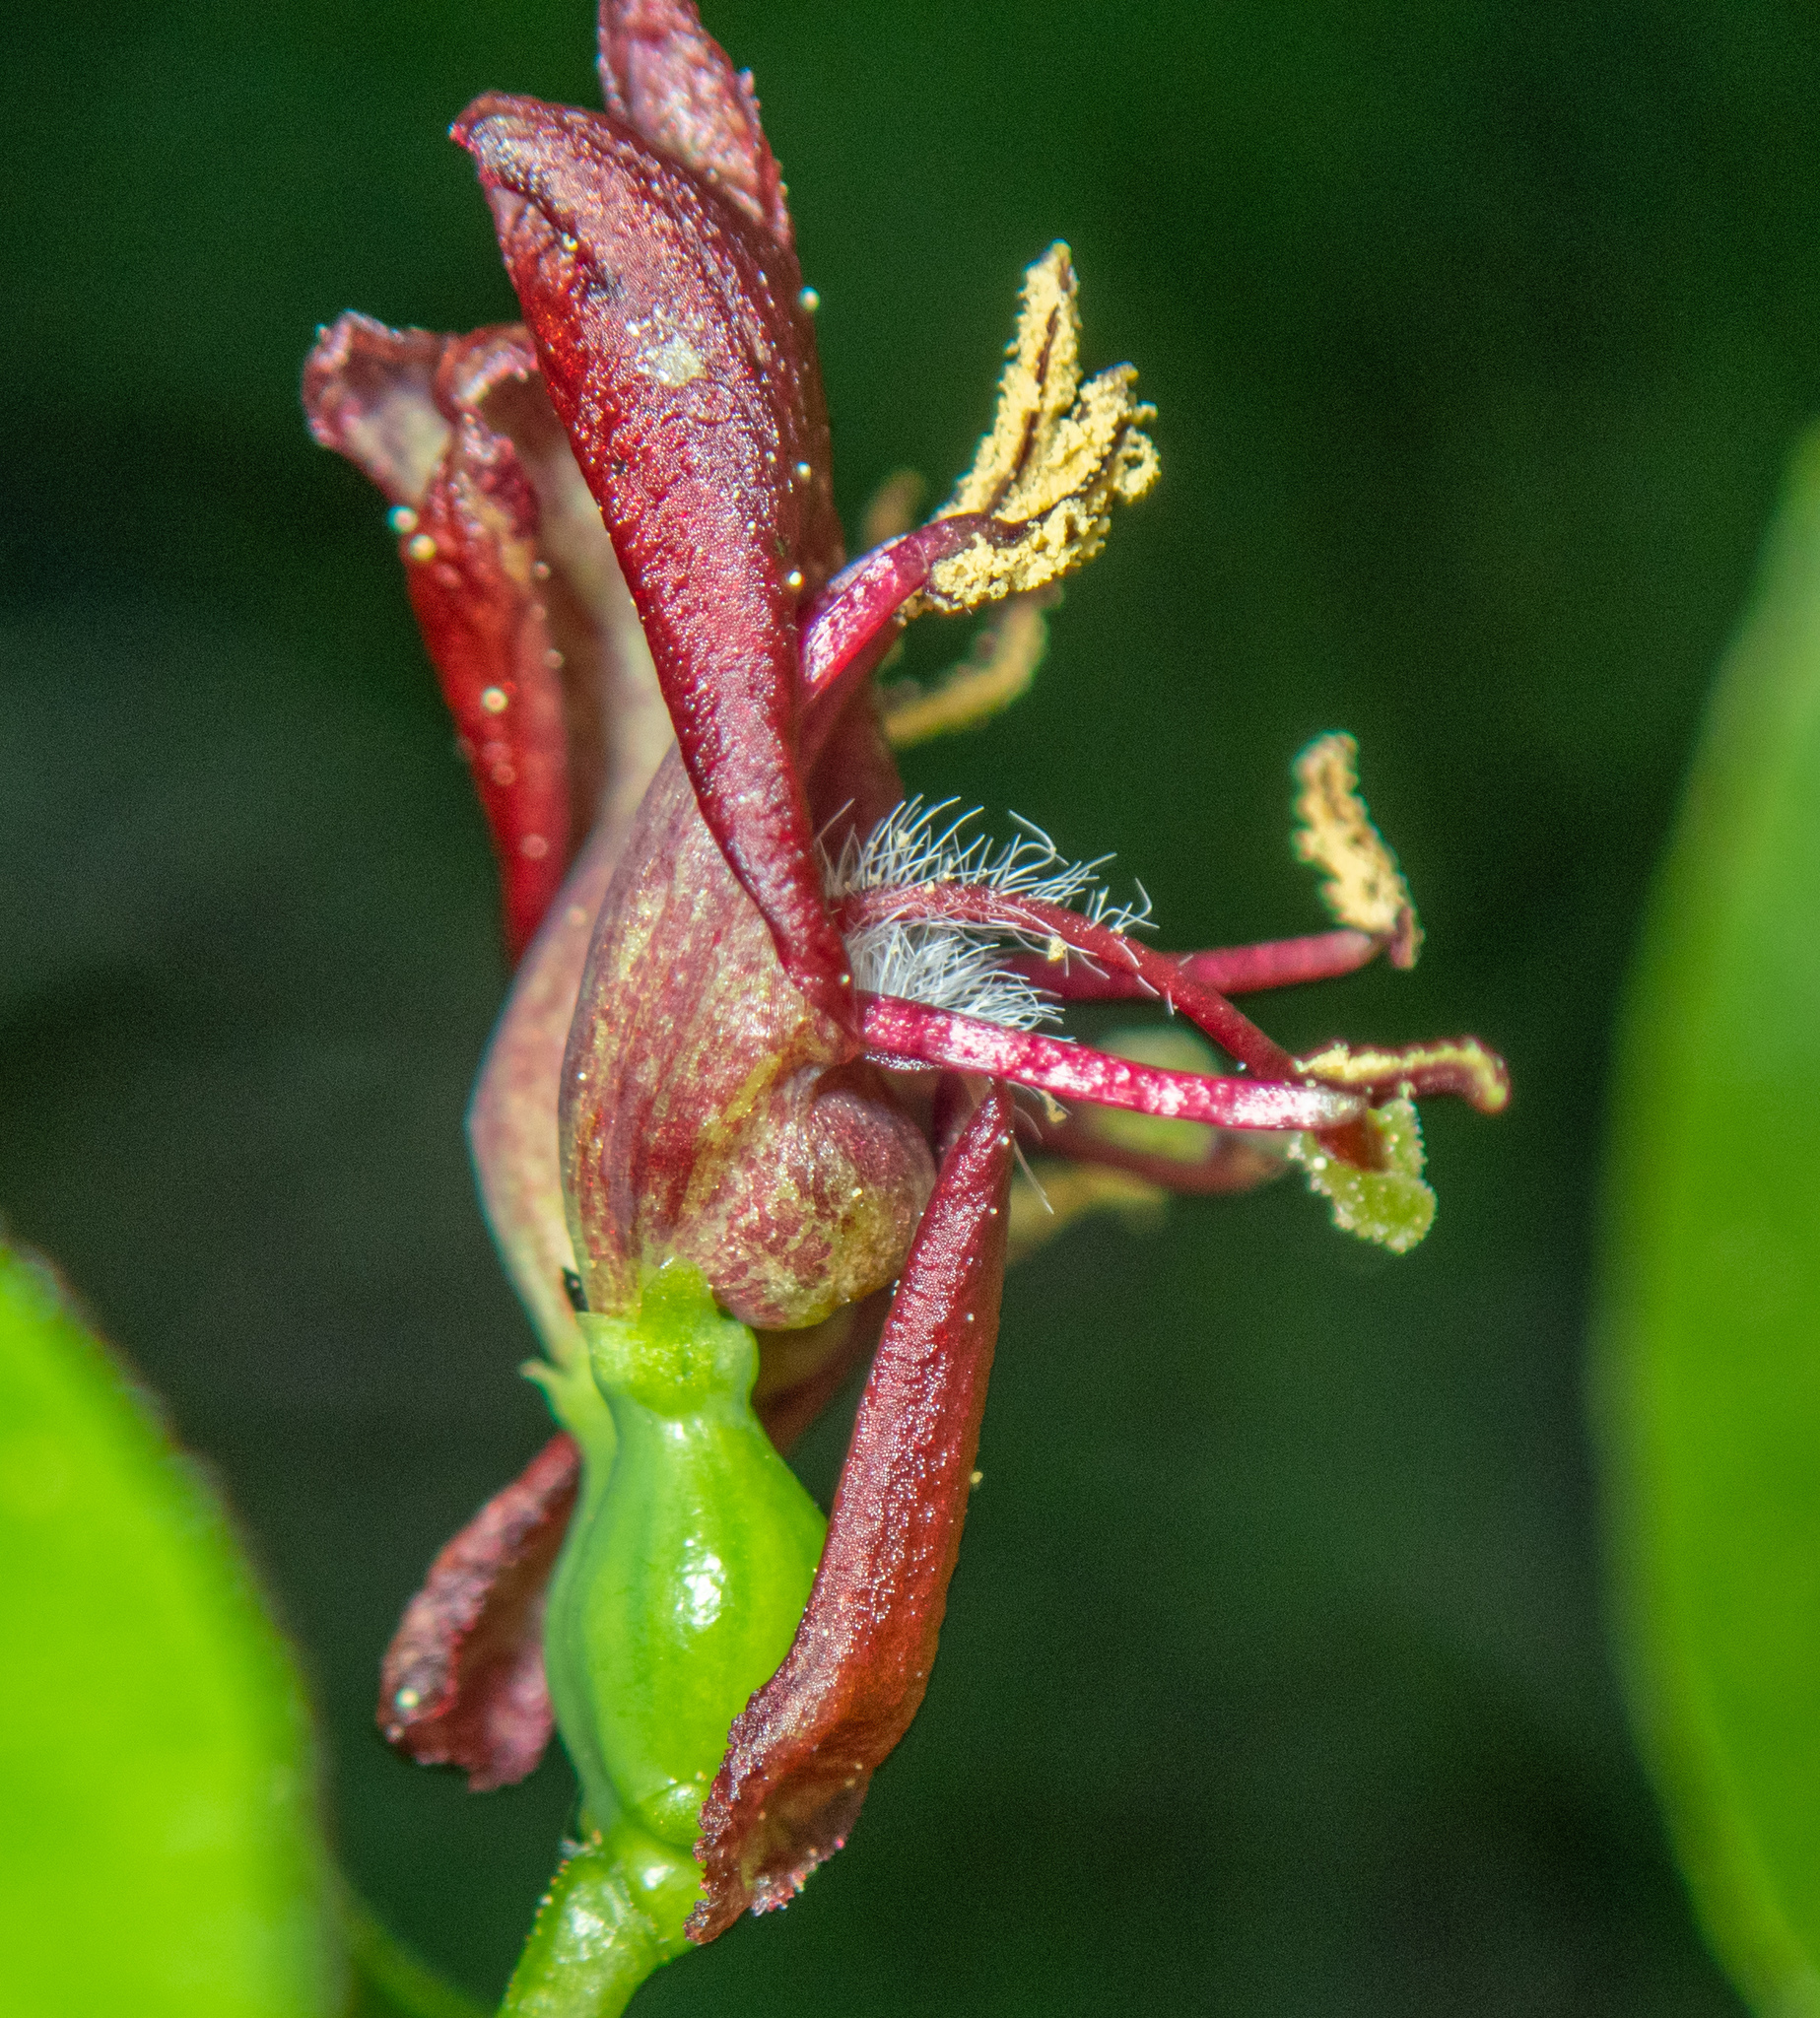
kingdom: Plantae
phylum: Tracheophyta
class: Magnoliopsida
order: Dipsacales
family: Caprifoliaceae
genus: Lonicera
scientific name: Lonicera conjugialis
